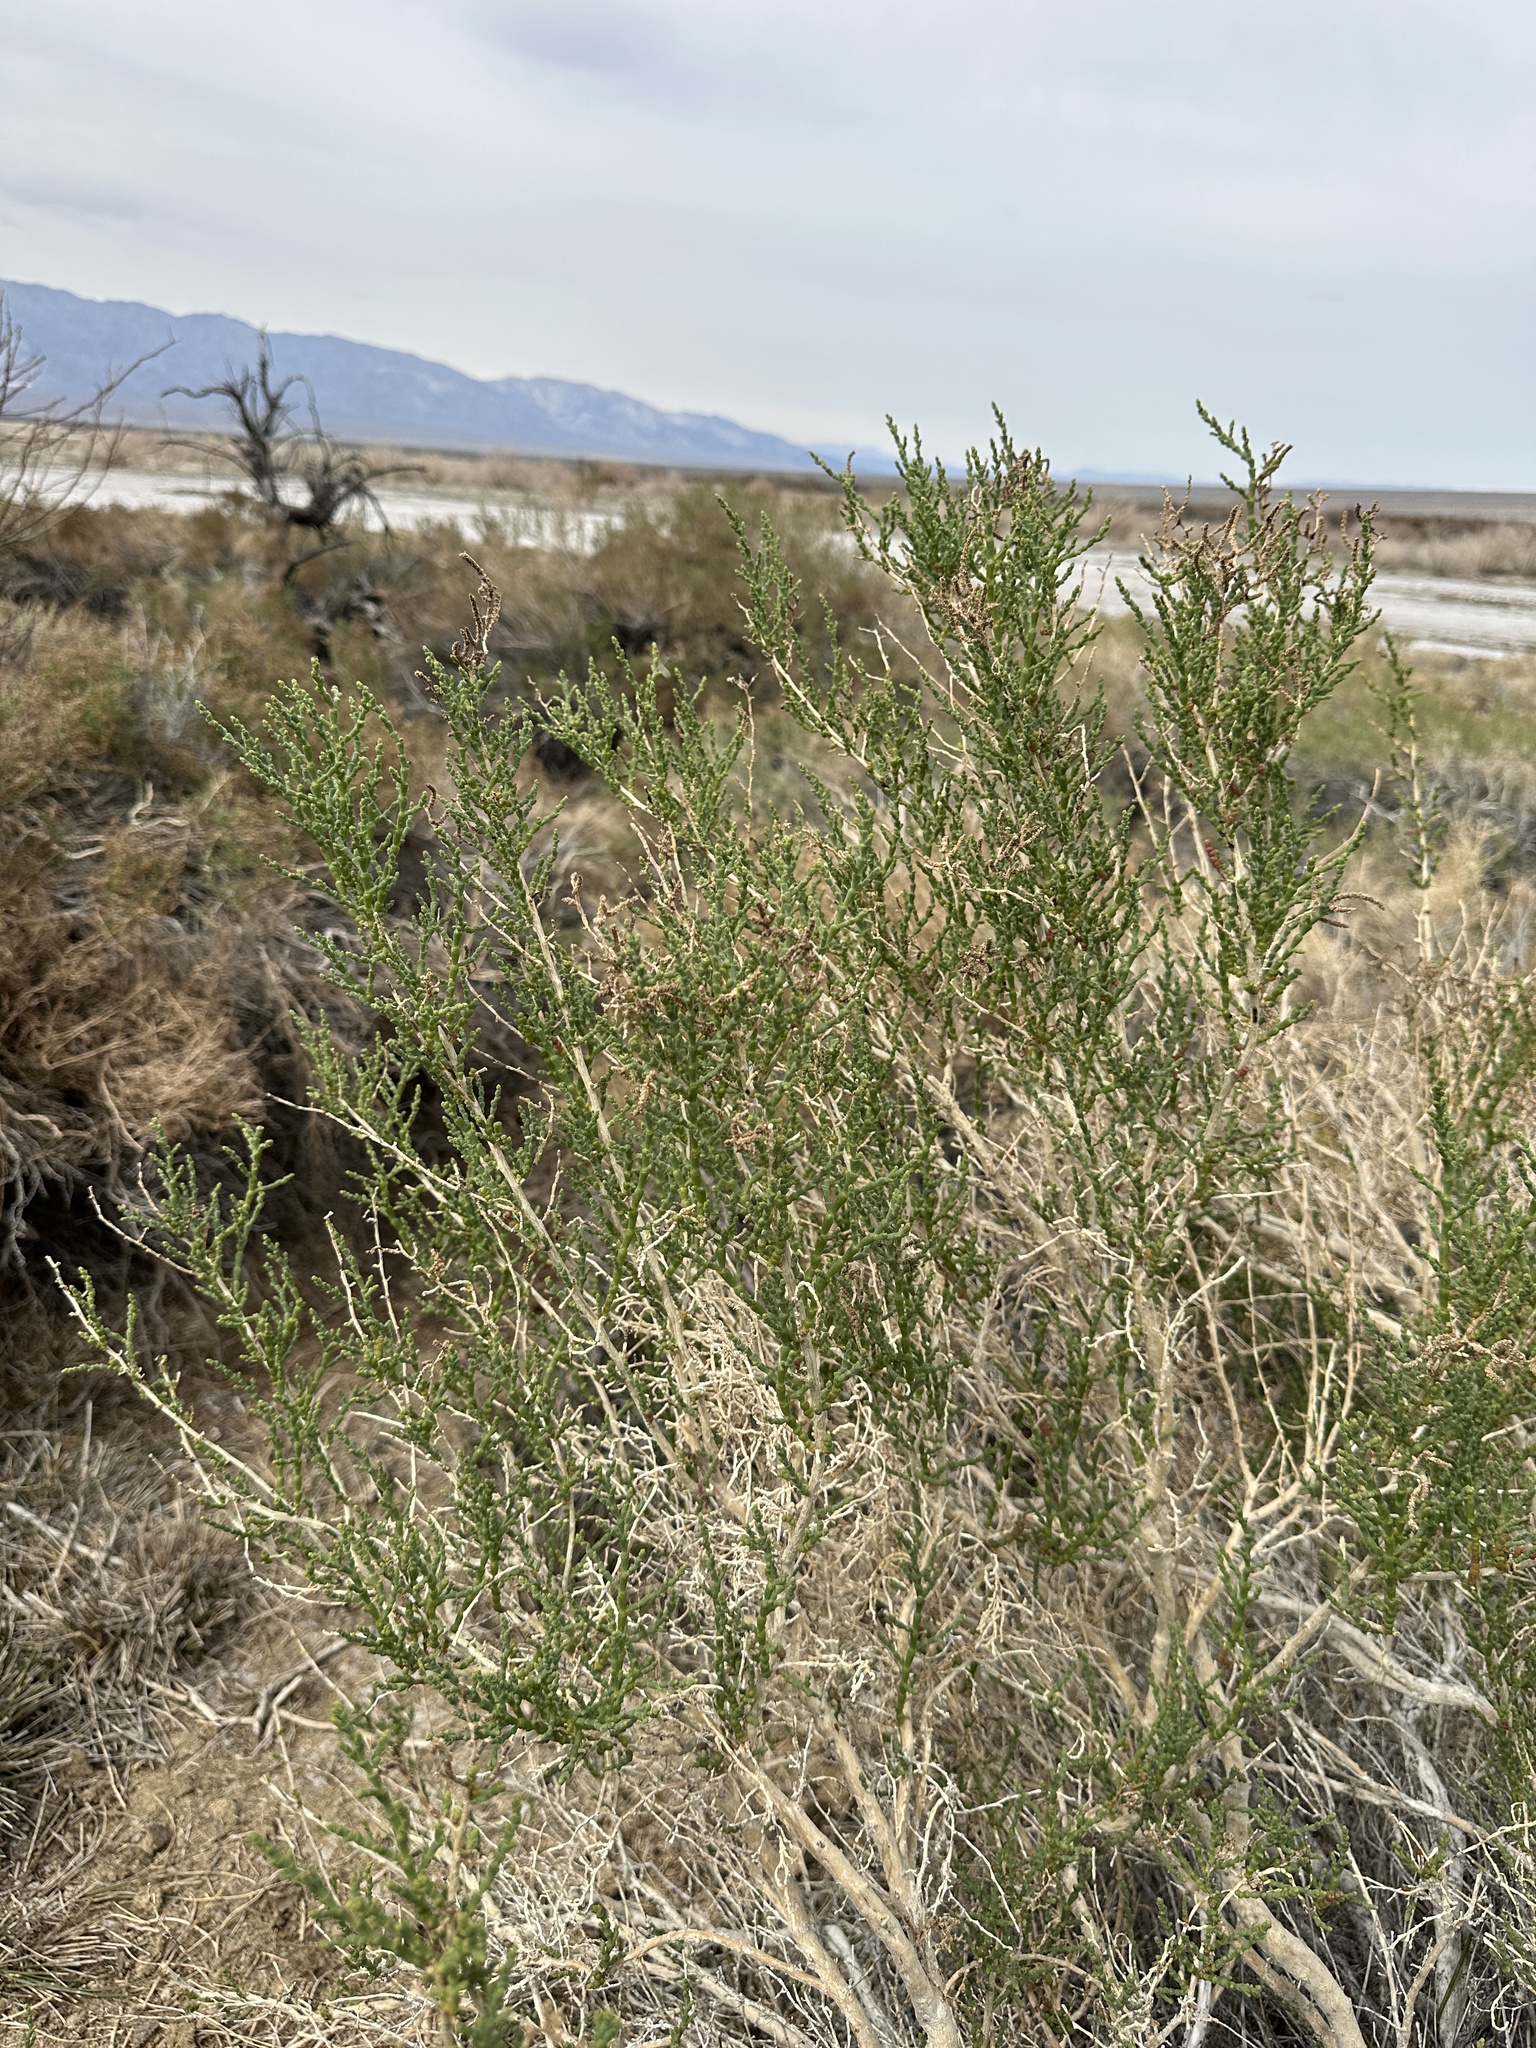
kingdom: Plantae
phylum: Tracheophyta
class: Magnoliopsida
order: Caryophyllales
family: Amaranthaceae
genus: Allenrolfea
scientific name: Allenrolfea occidentalis
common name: Iodine-bush
